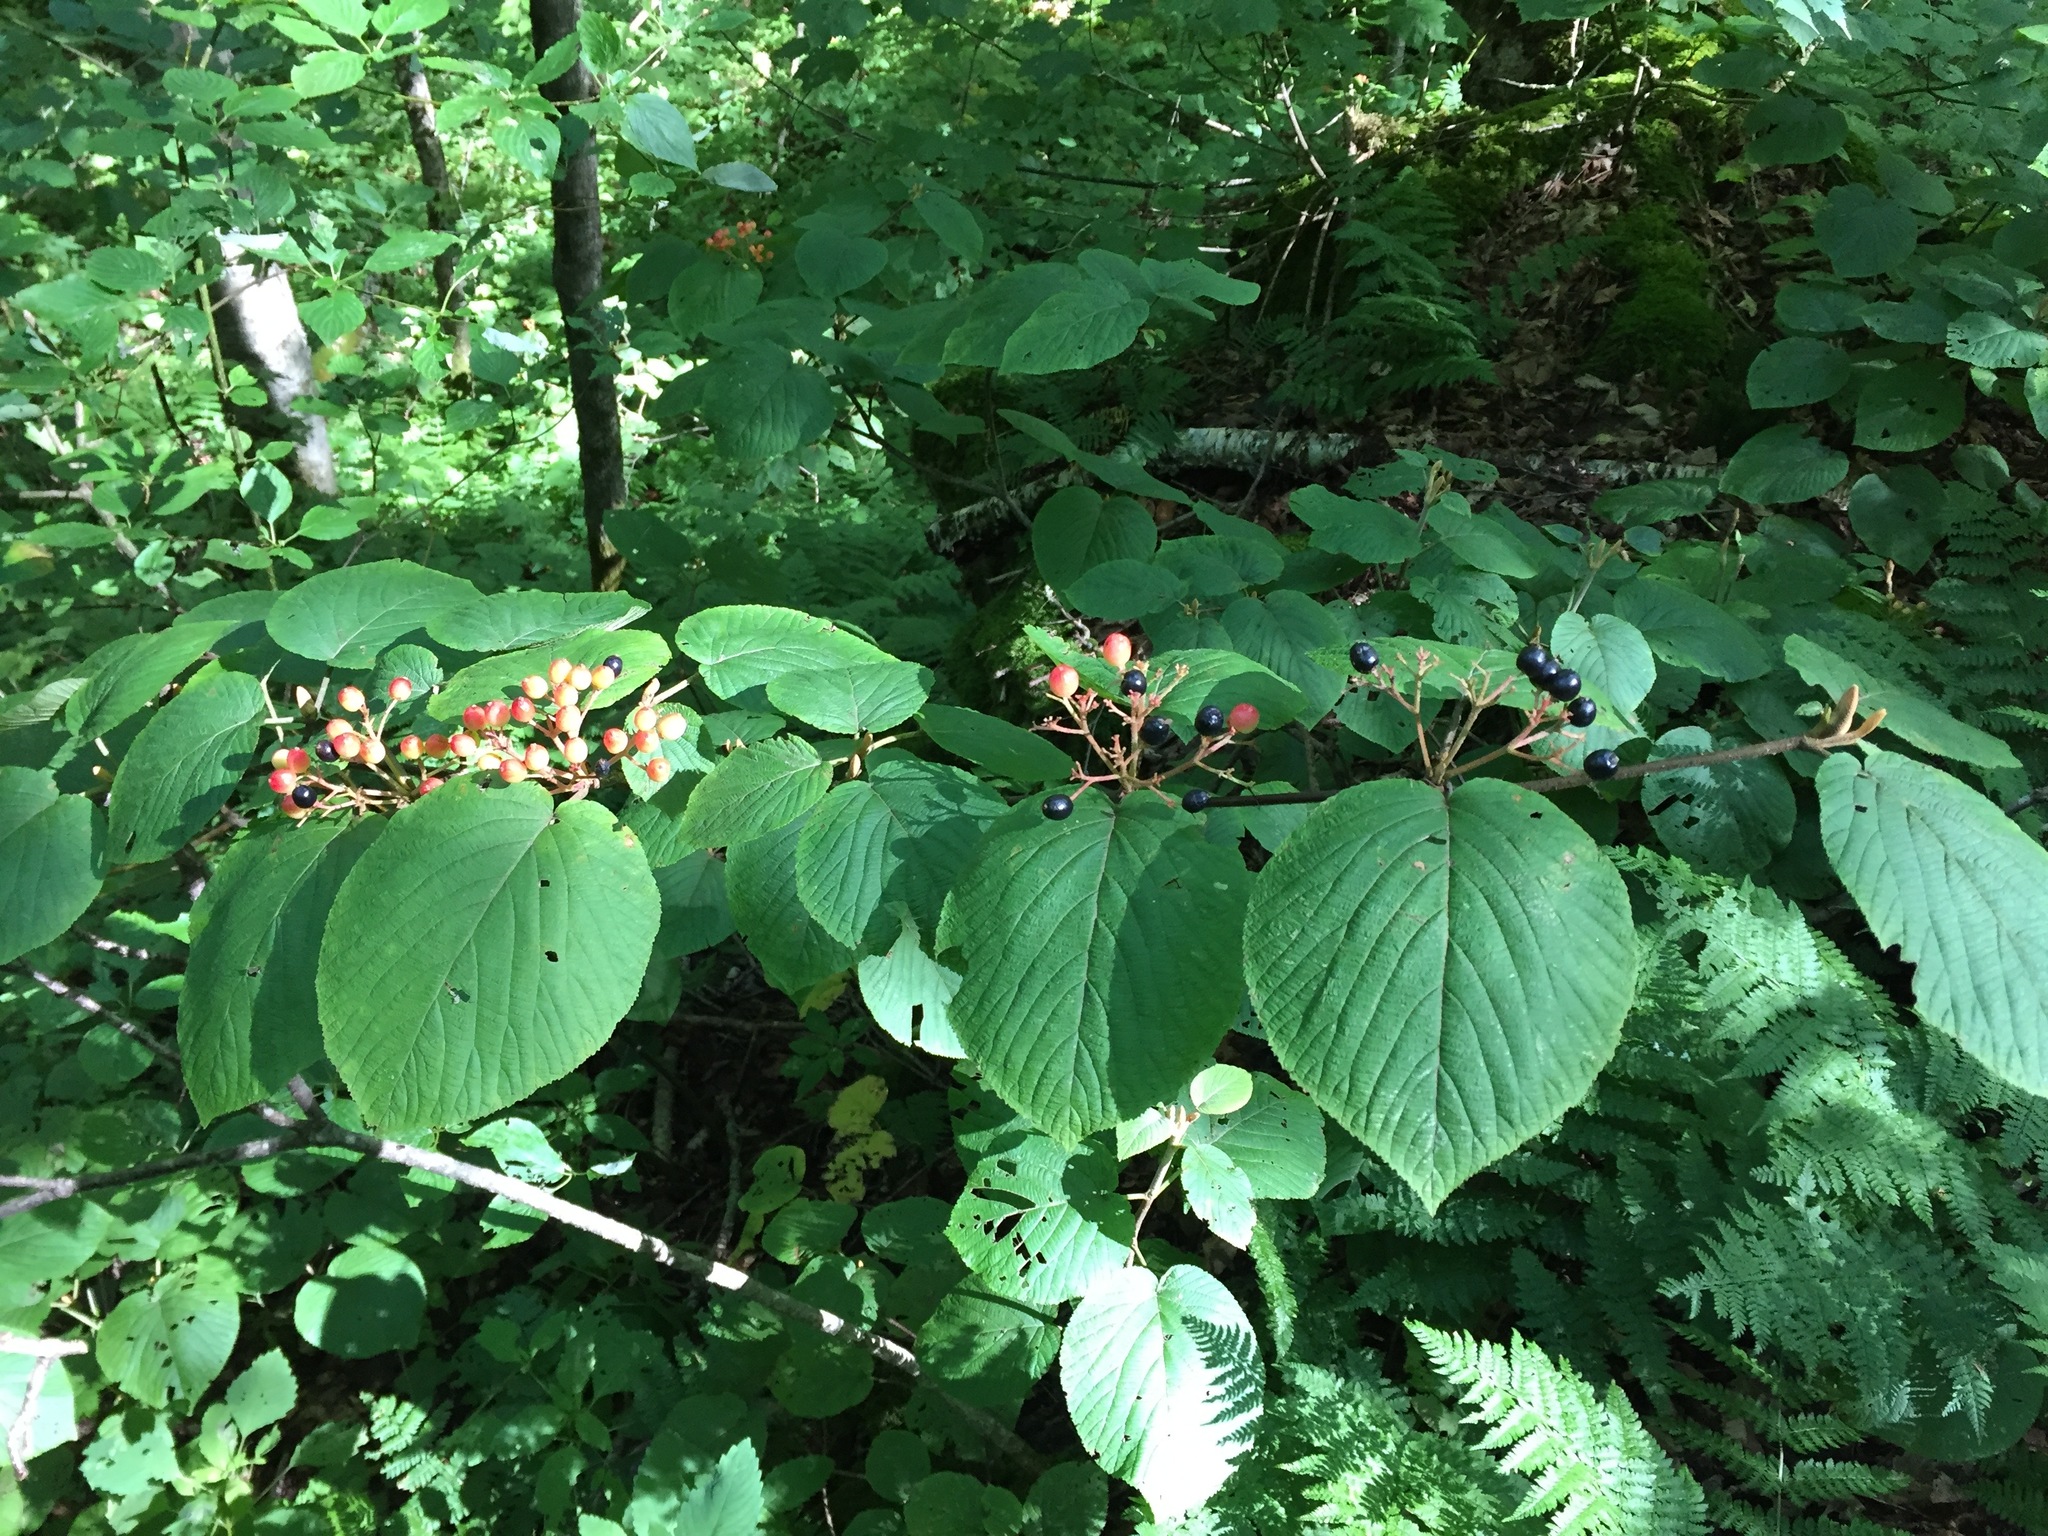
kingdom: Plantae
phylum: Tracheophyta
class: Magnoliopsida
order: Dipsacales
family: Viburnaceae
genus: Viburnum
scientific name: Viburnum lantanoides
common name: Hobblebush
